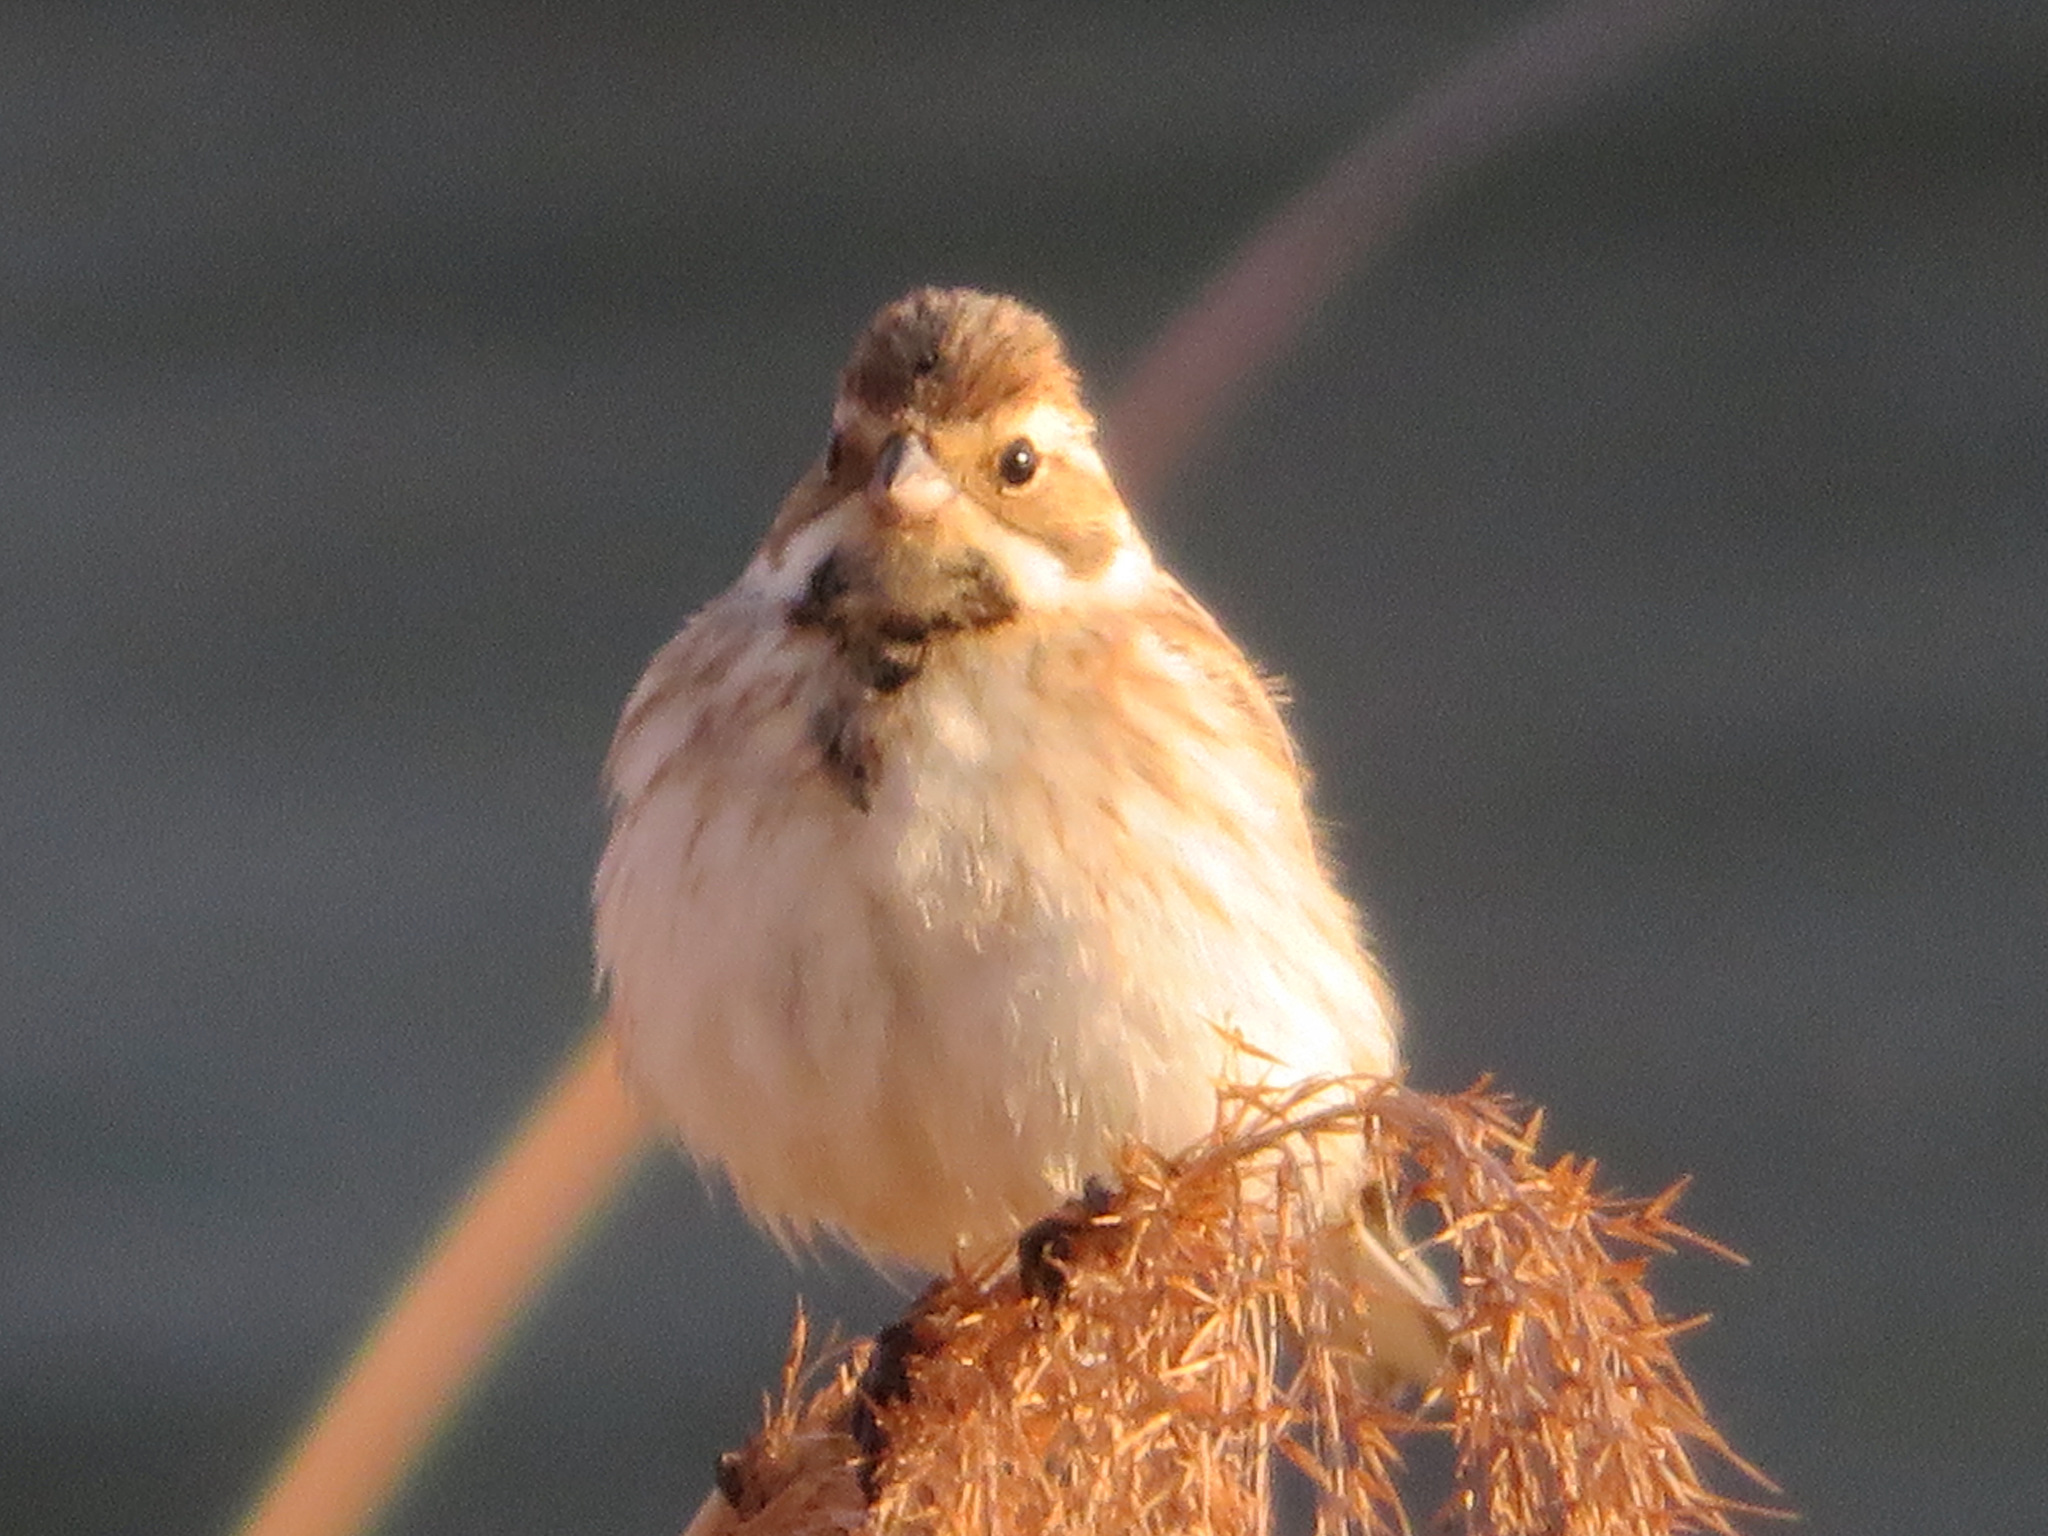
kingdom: Animalia
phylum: Chordata
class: Aves
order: Passeriformes
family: Emberizidae
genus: Emberiza
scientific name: Emberiza schoeniclus
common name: Reed bunting
